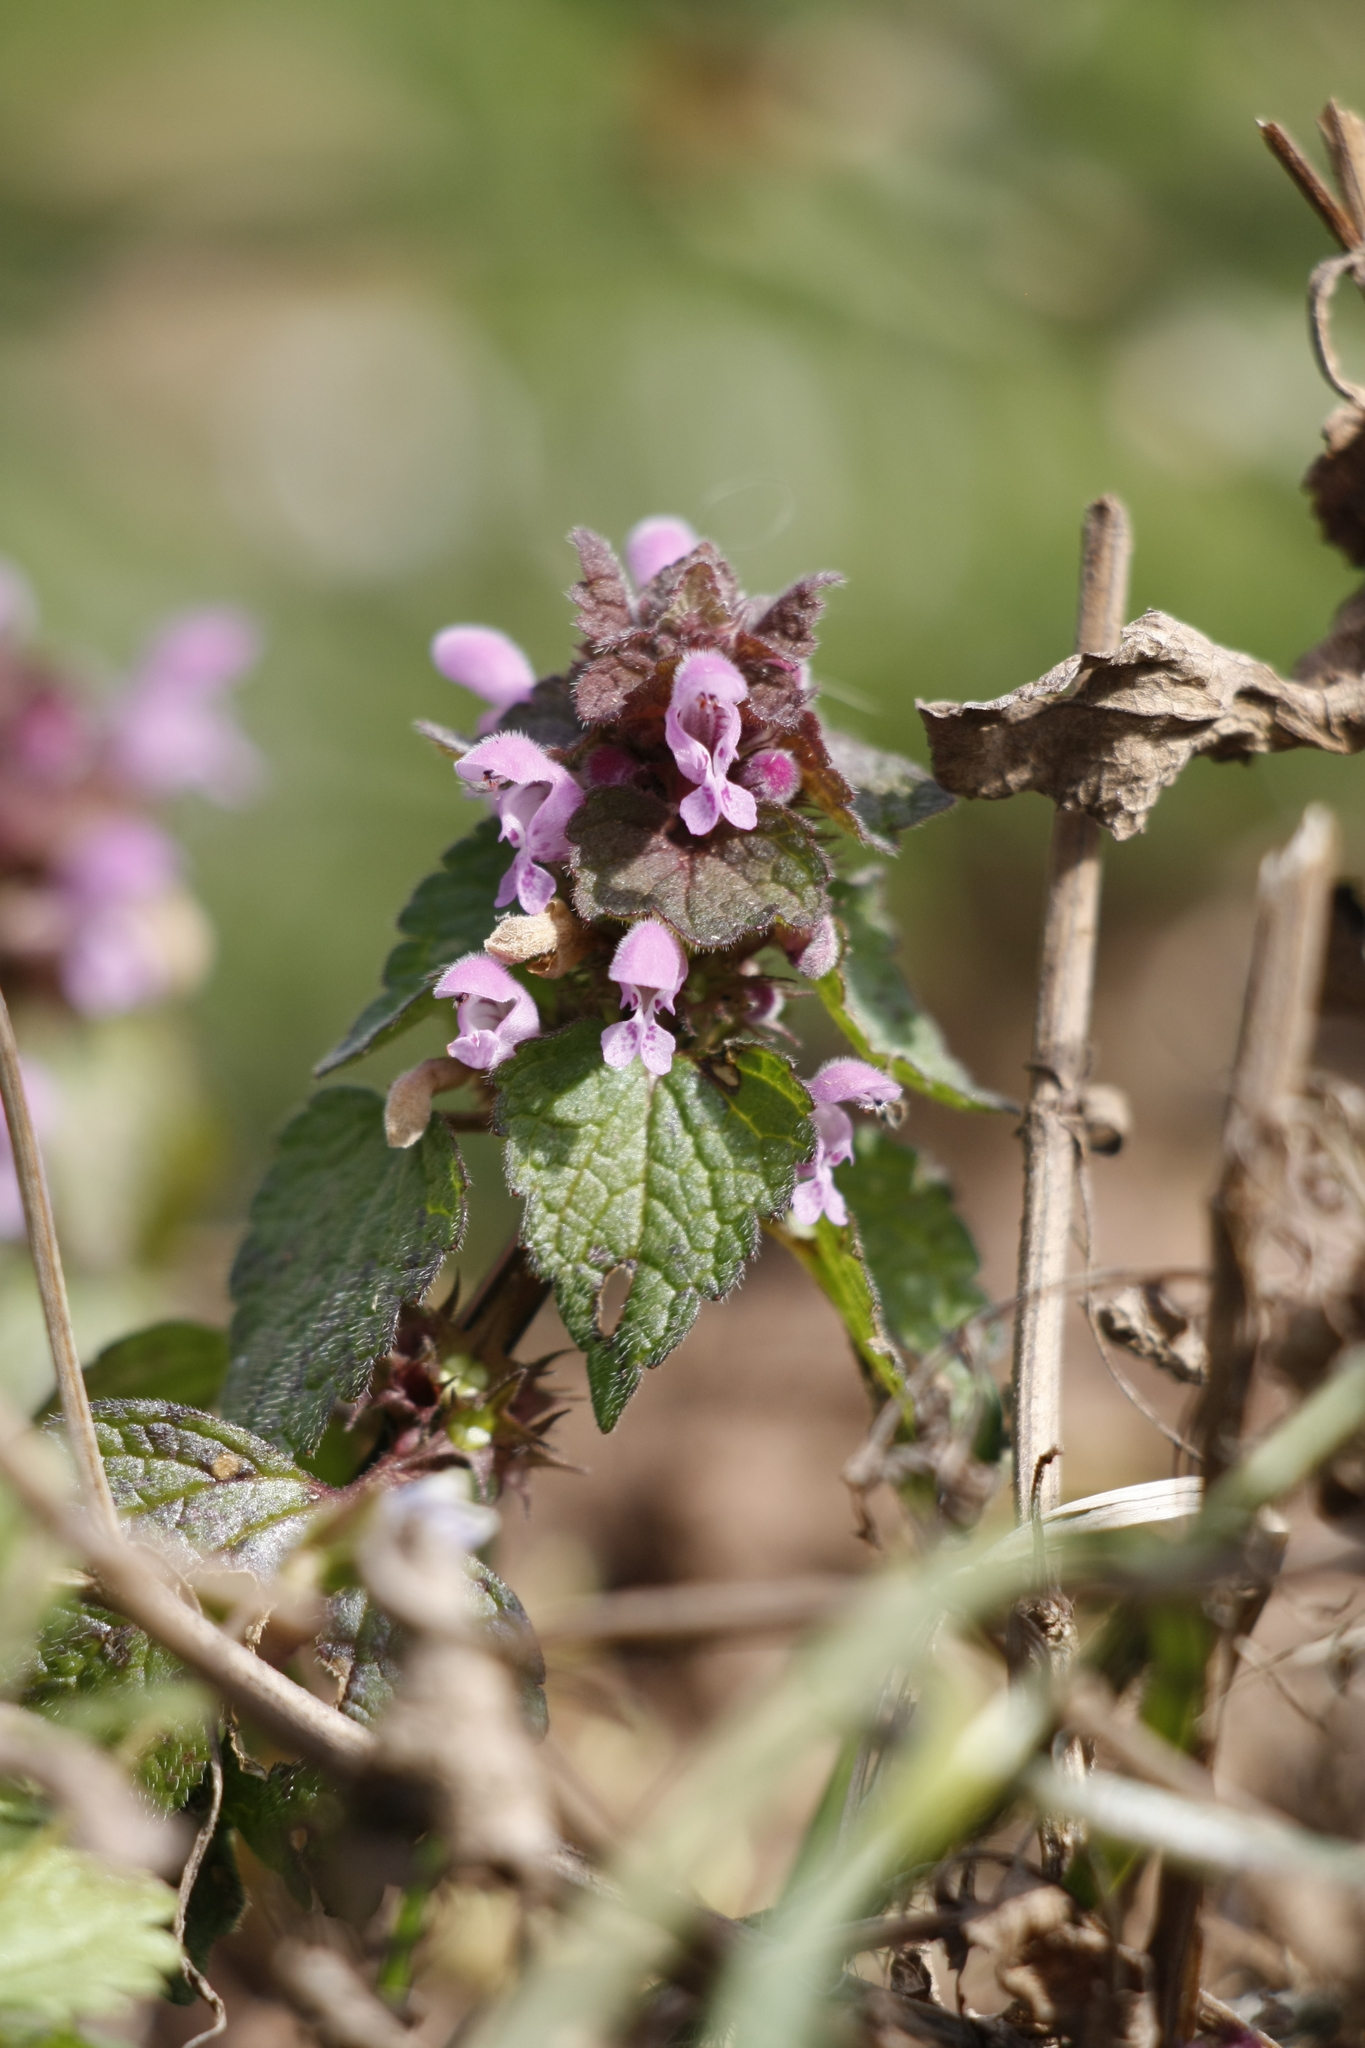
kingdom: Plantae
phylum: Tracheophyta
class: Magnoliopsida
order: Lamiales
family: Lamiaceae
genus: Lamium
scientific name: Lamium purpureum
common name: Red dead-nettle
